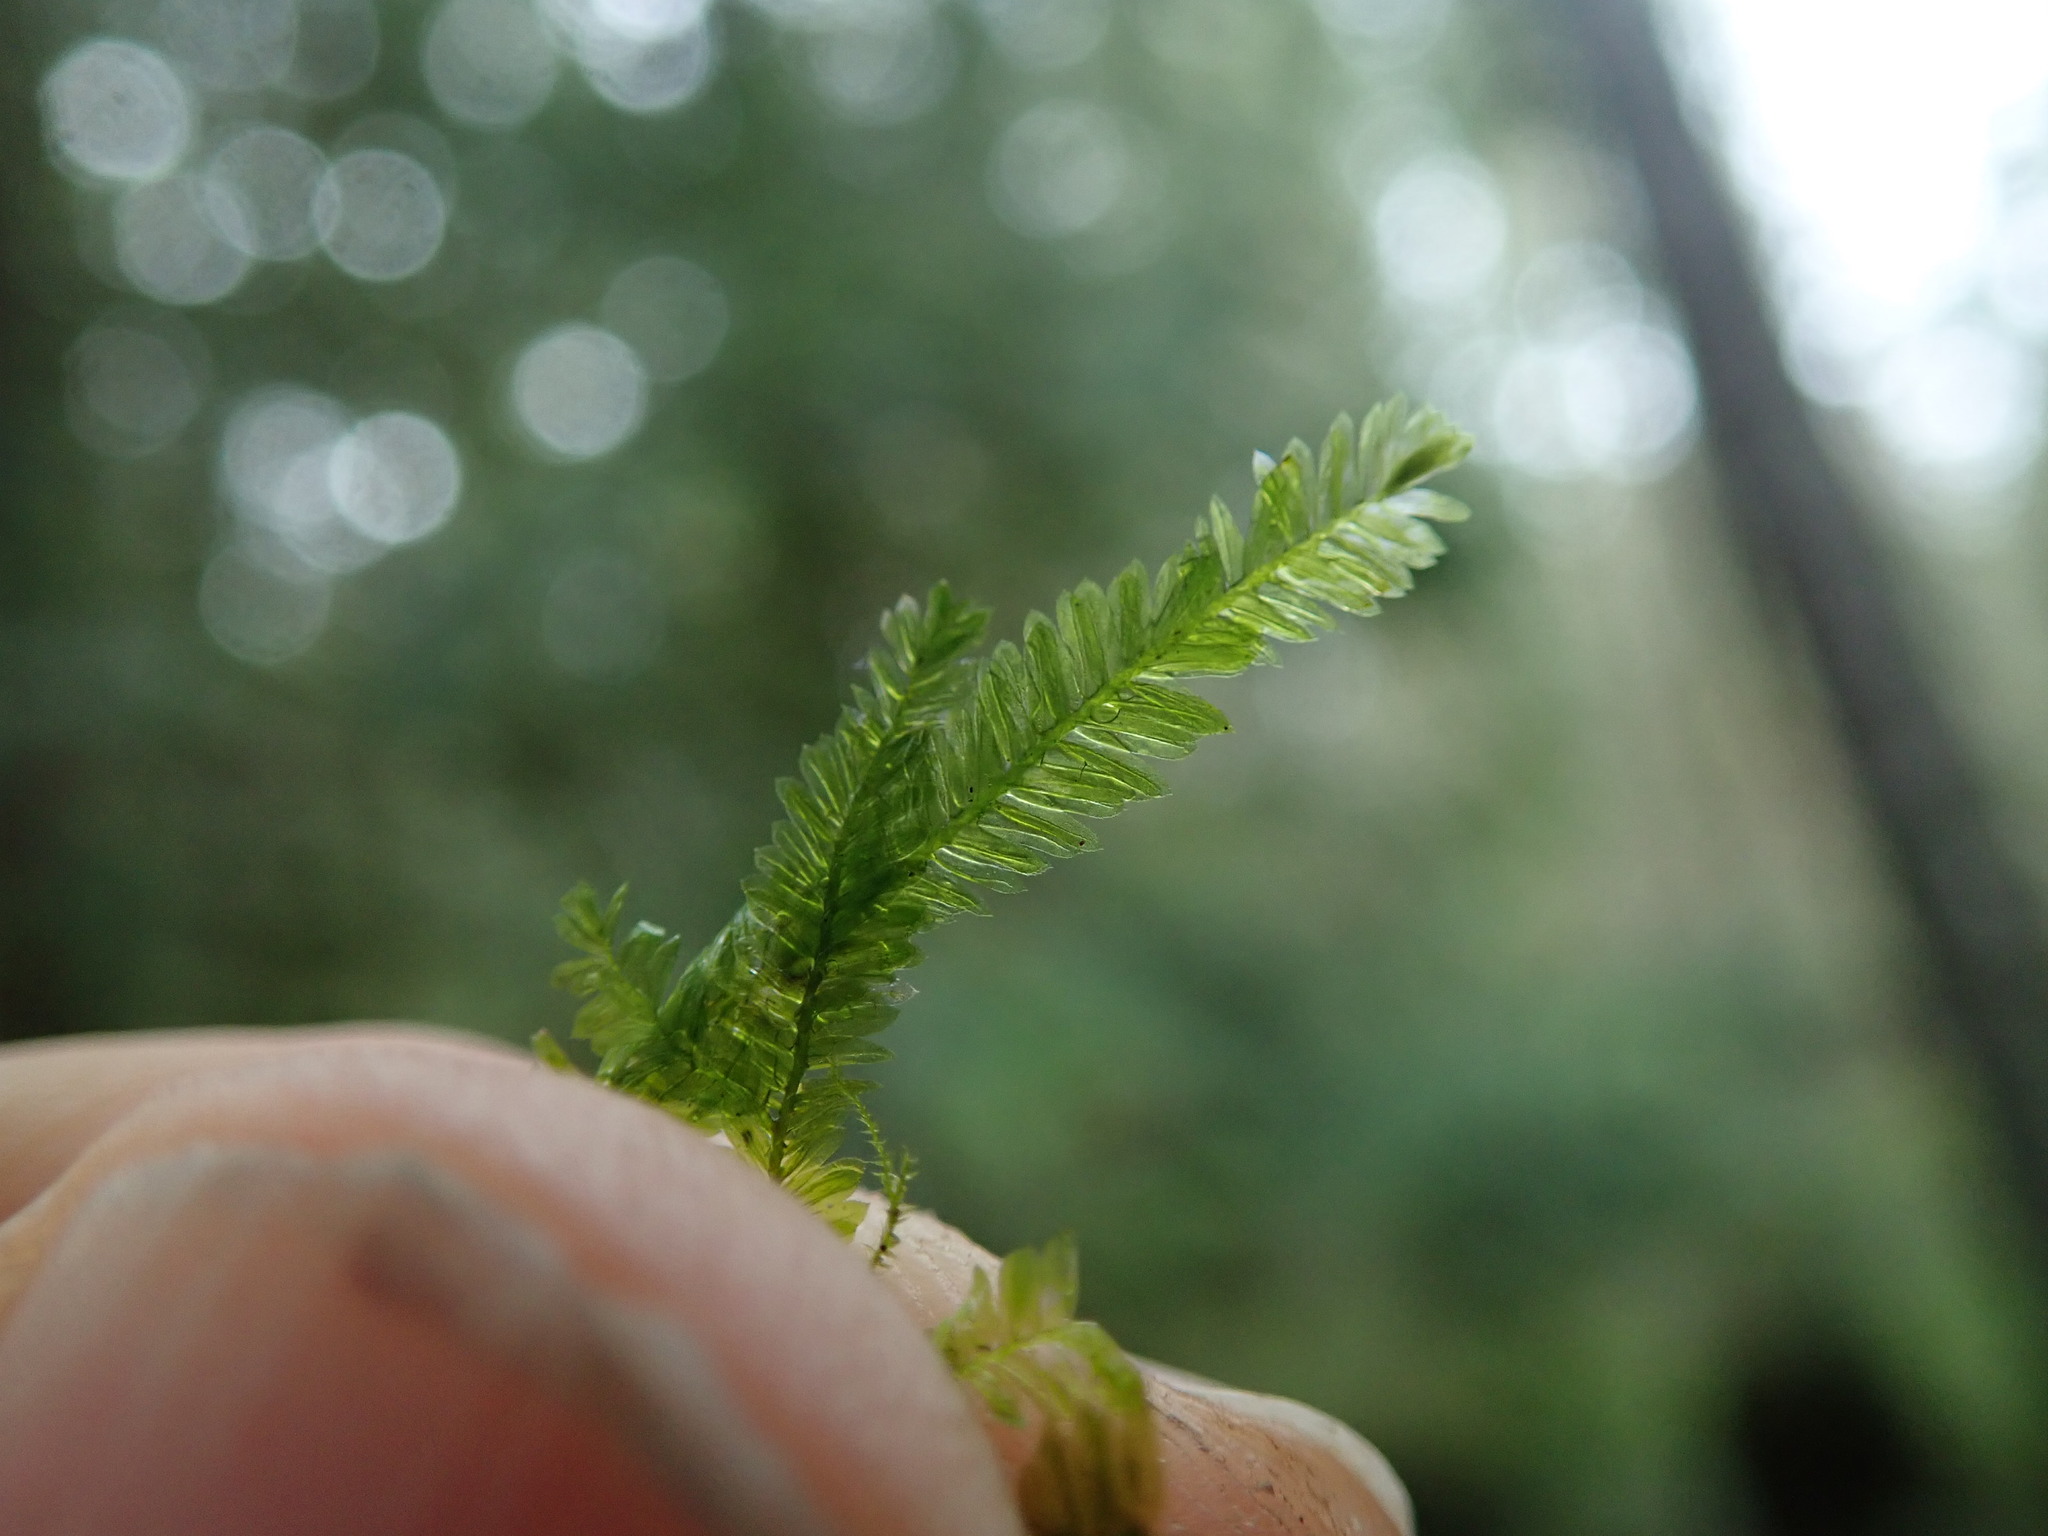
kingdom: Plantae
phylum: Bryophyta
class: Bryopsida
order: Hypnales
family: Neckeraceae
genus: Dannorrisia
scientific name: Dannorrisia bigelovii
